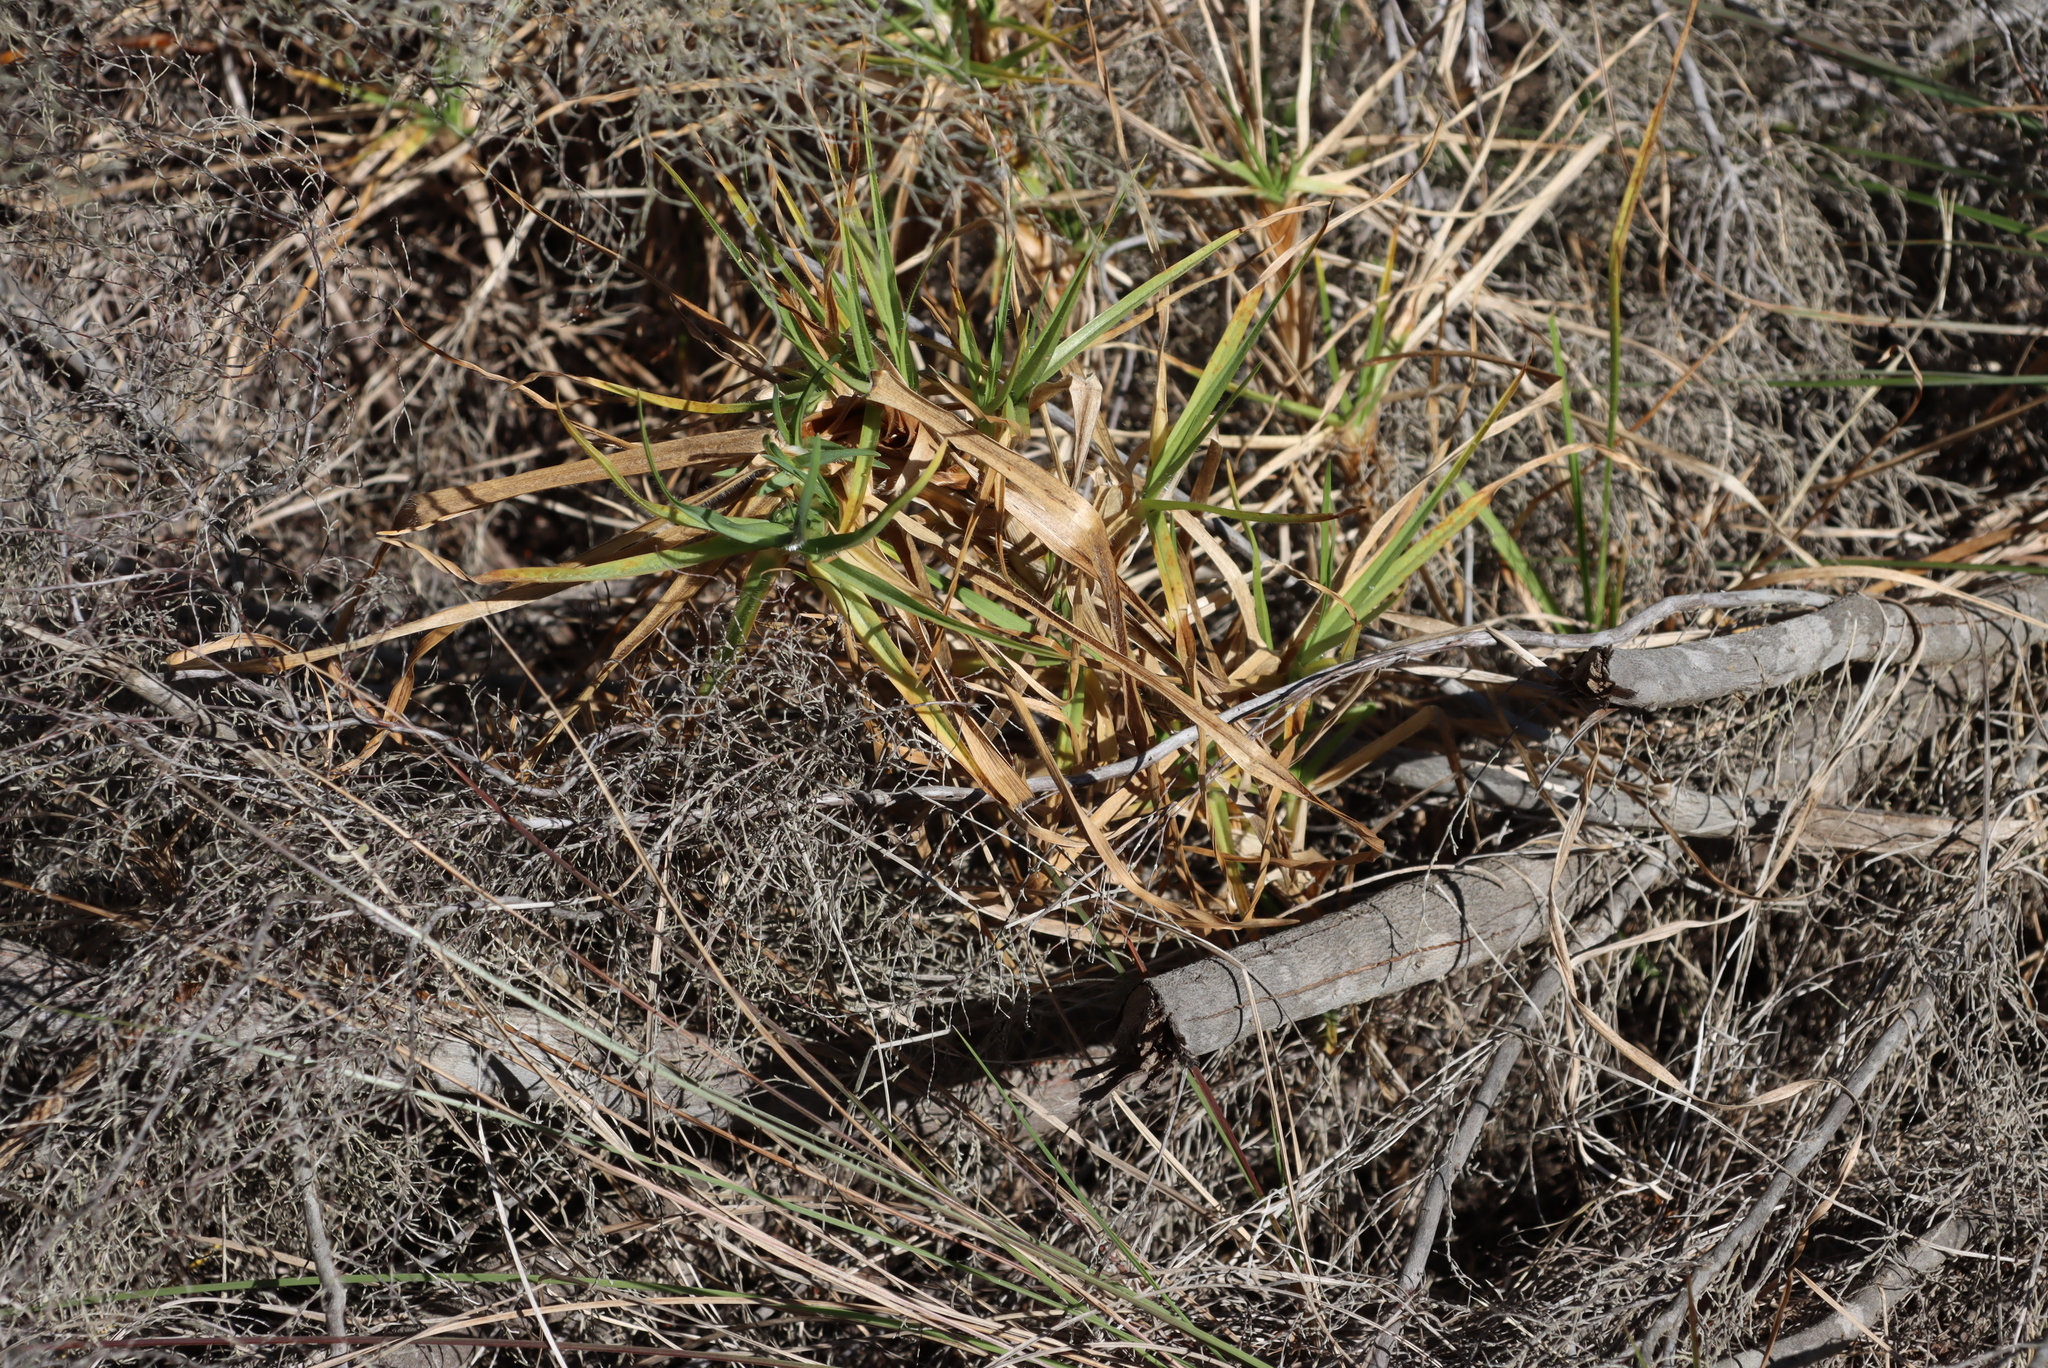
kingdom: Plantae
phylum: Tracheophyta
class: Liliopsida
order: Poales
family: Poaceae
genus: Cenchrus
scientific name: Cenchrus clandestinus
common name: Kikuyugrass
